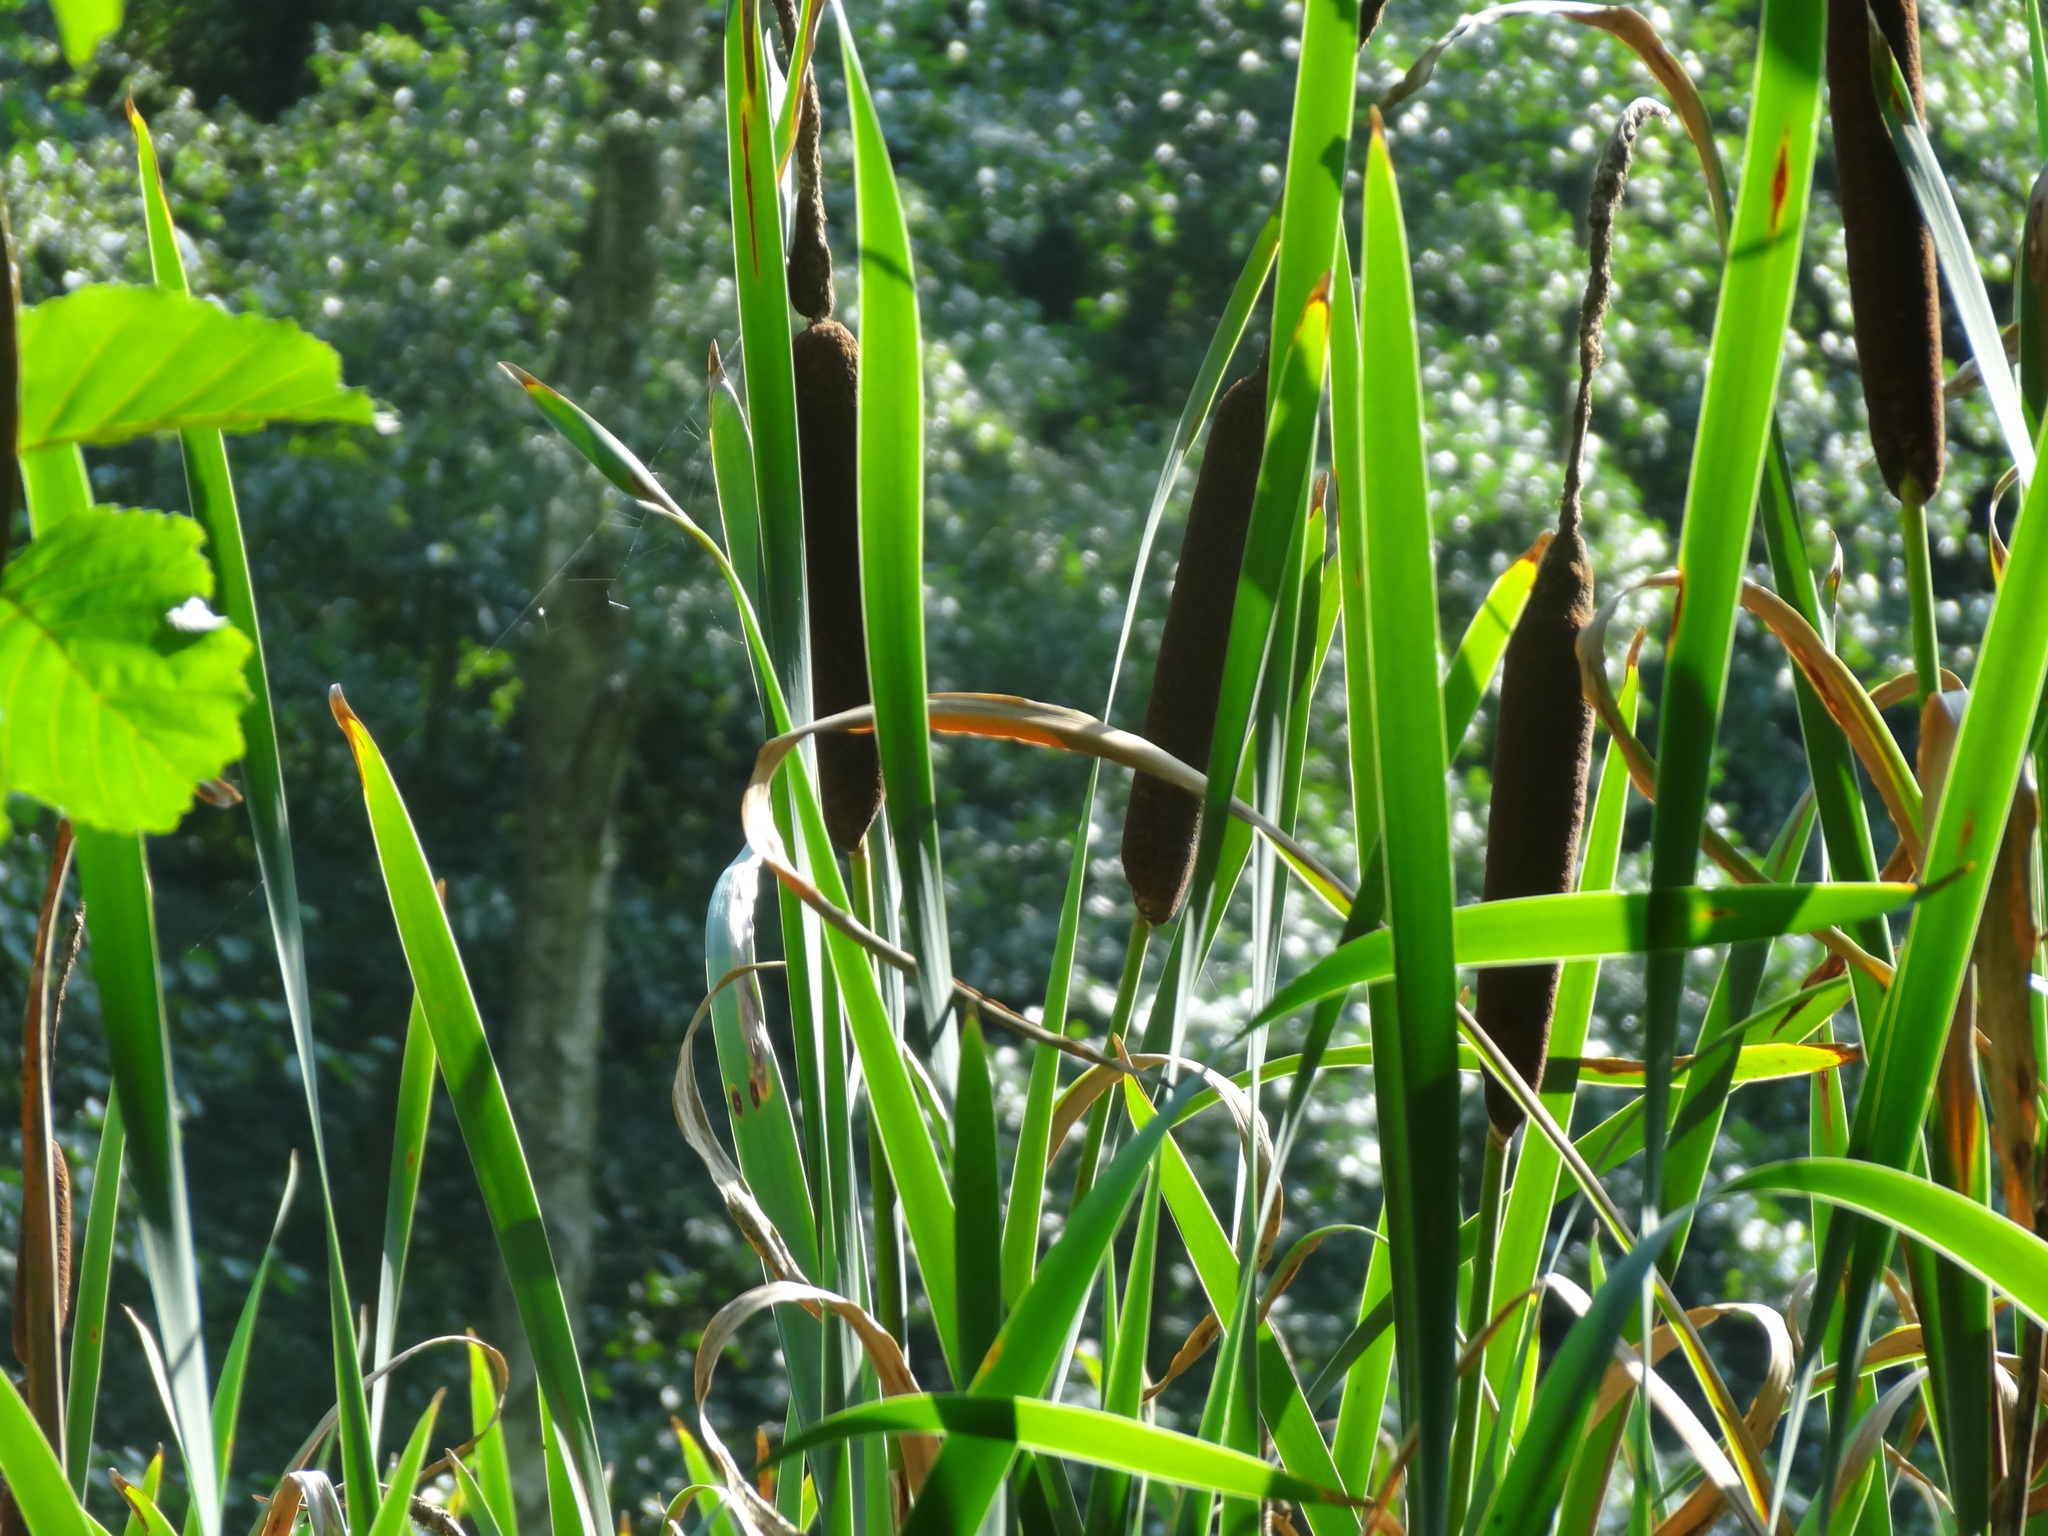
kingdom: Plantae
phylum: Tracheophyta
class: Liliopsida
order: Poales
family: Typhaceae
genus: Typha
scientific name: Typha latifolia
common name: Broadleaf cattail
